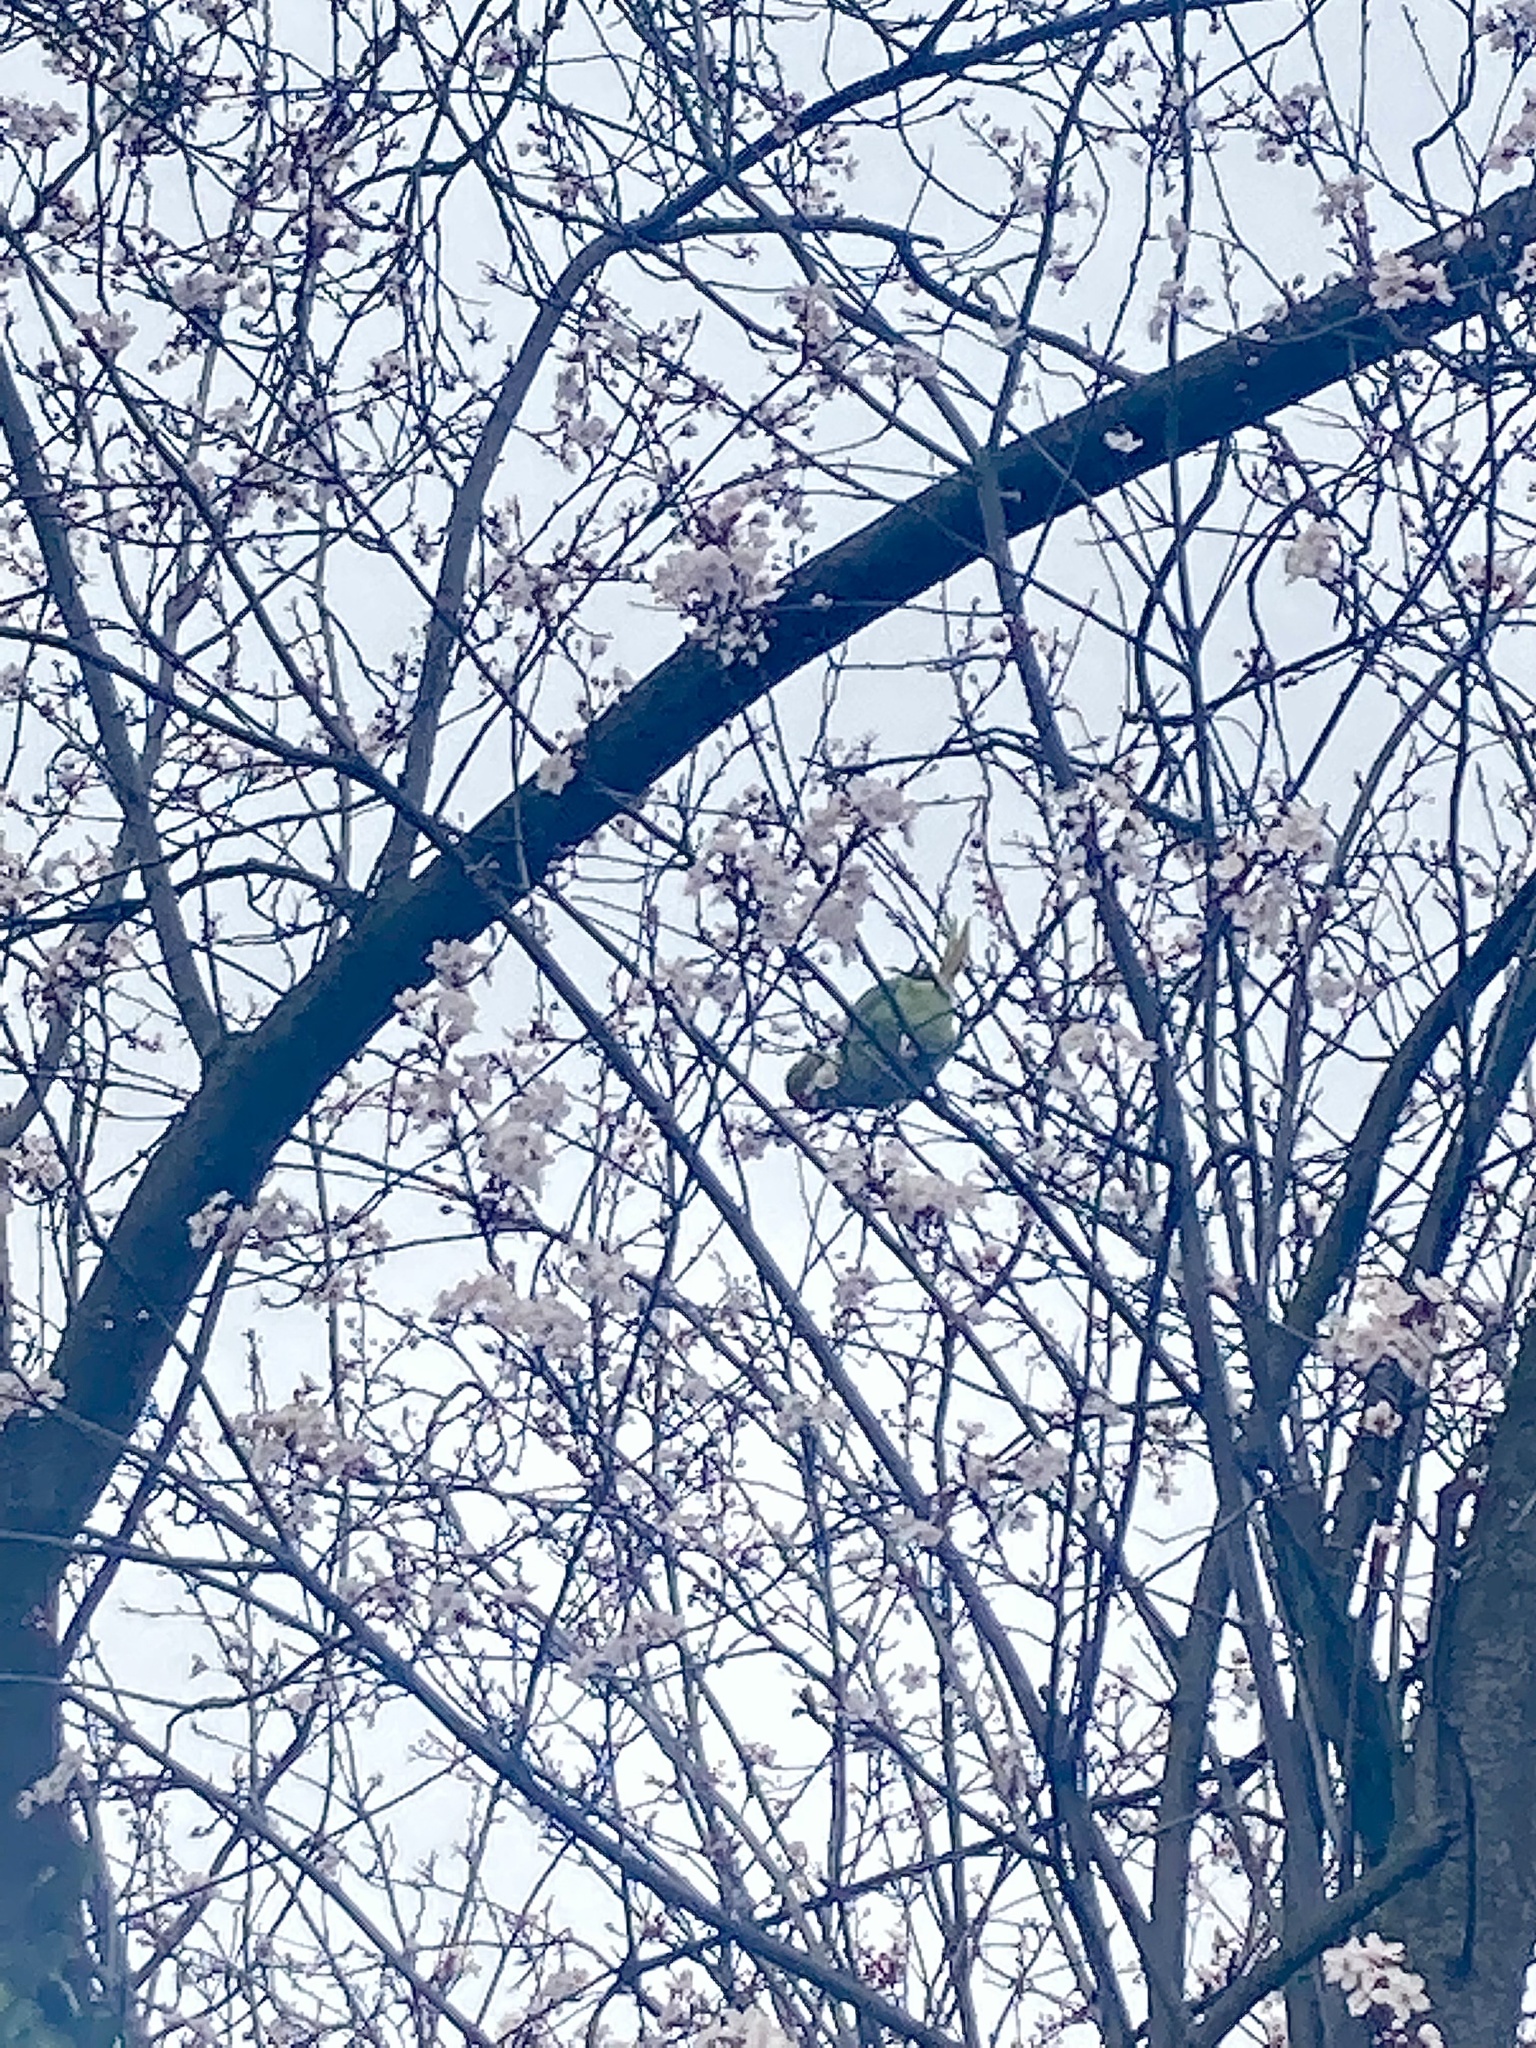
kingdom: Animalia
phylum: Chordata
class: Aves
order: Psittaciformes
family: Psittacidae
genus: Psittacula
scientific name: Psittacula krameri
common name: Rose-ringed parakeet
